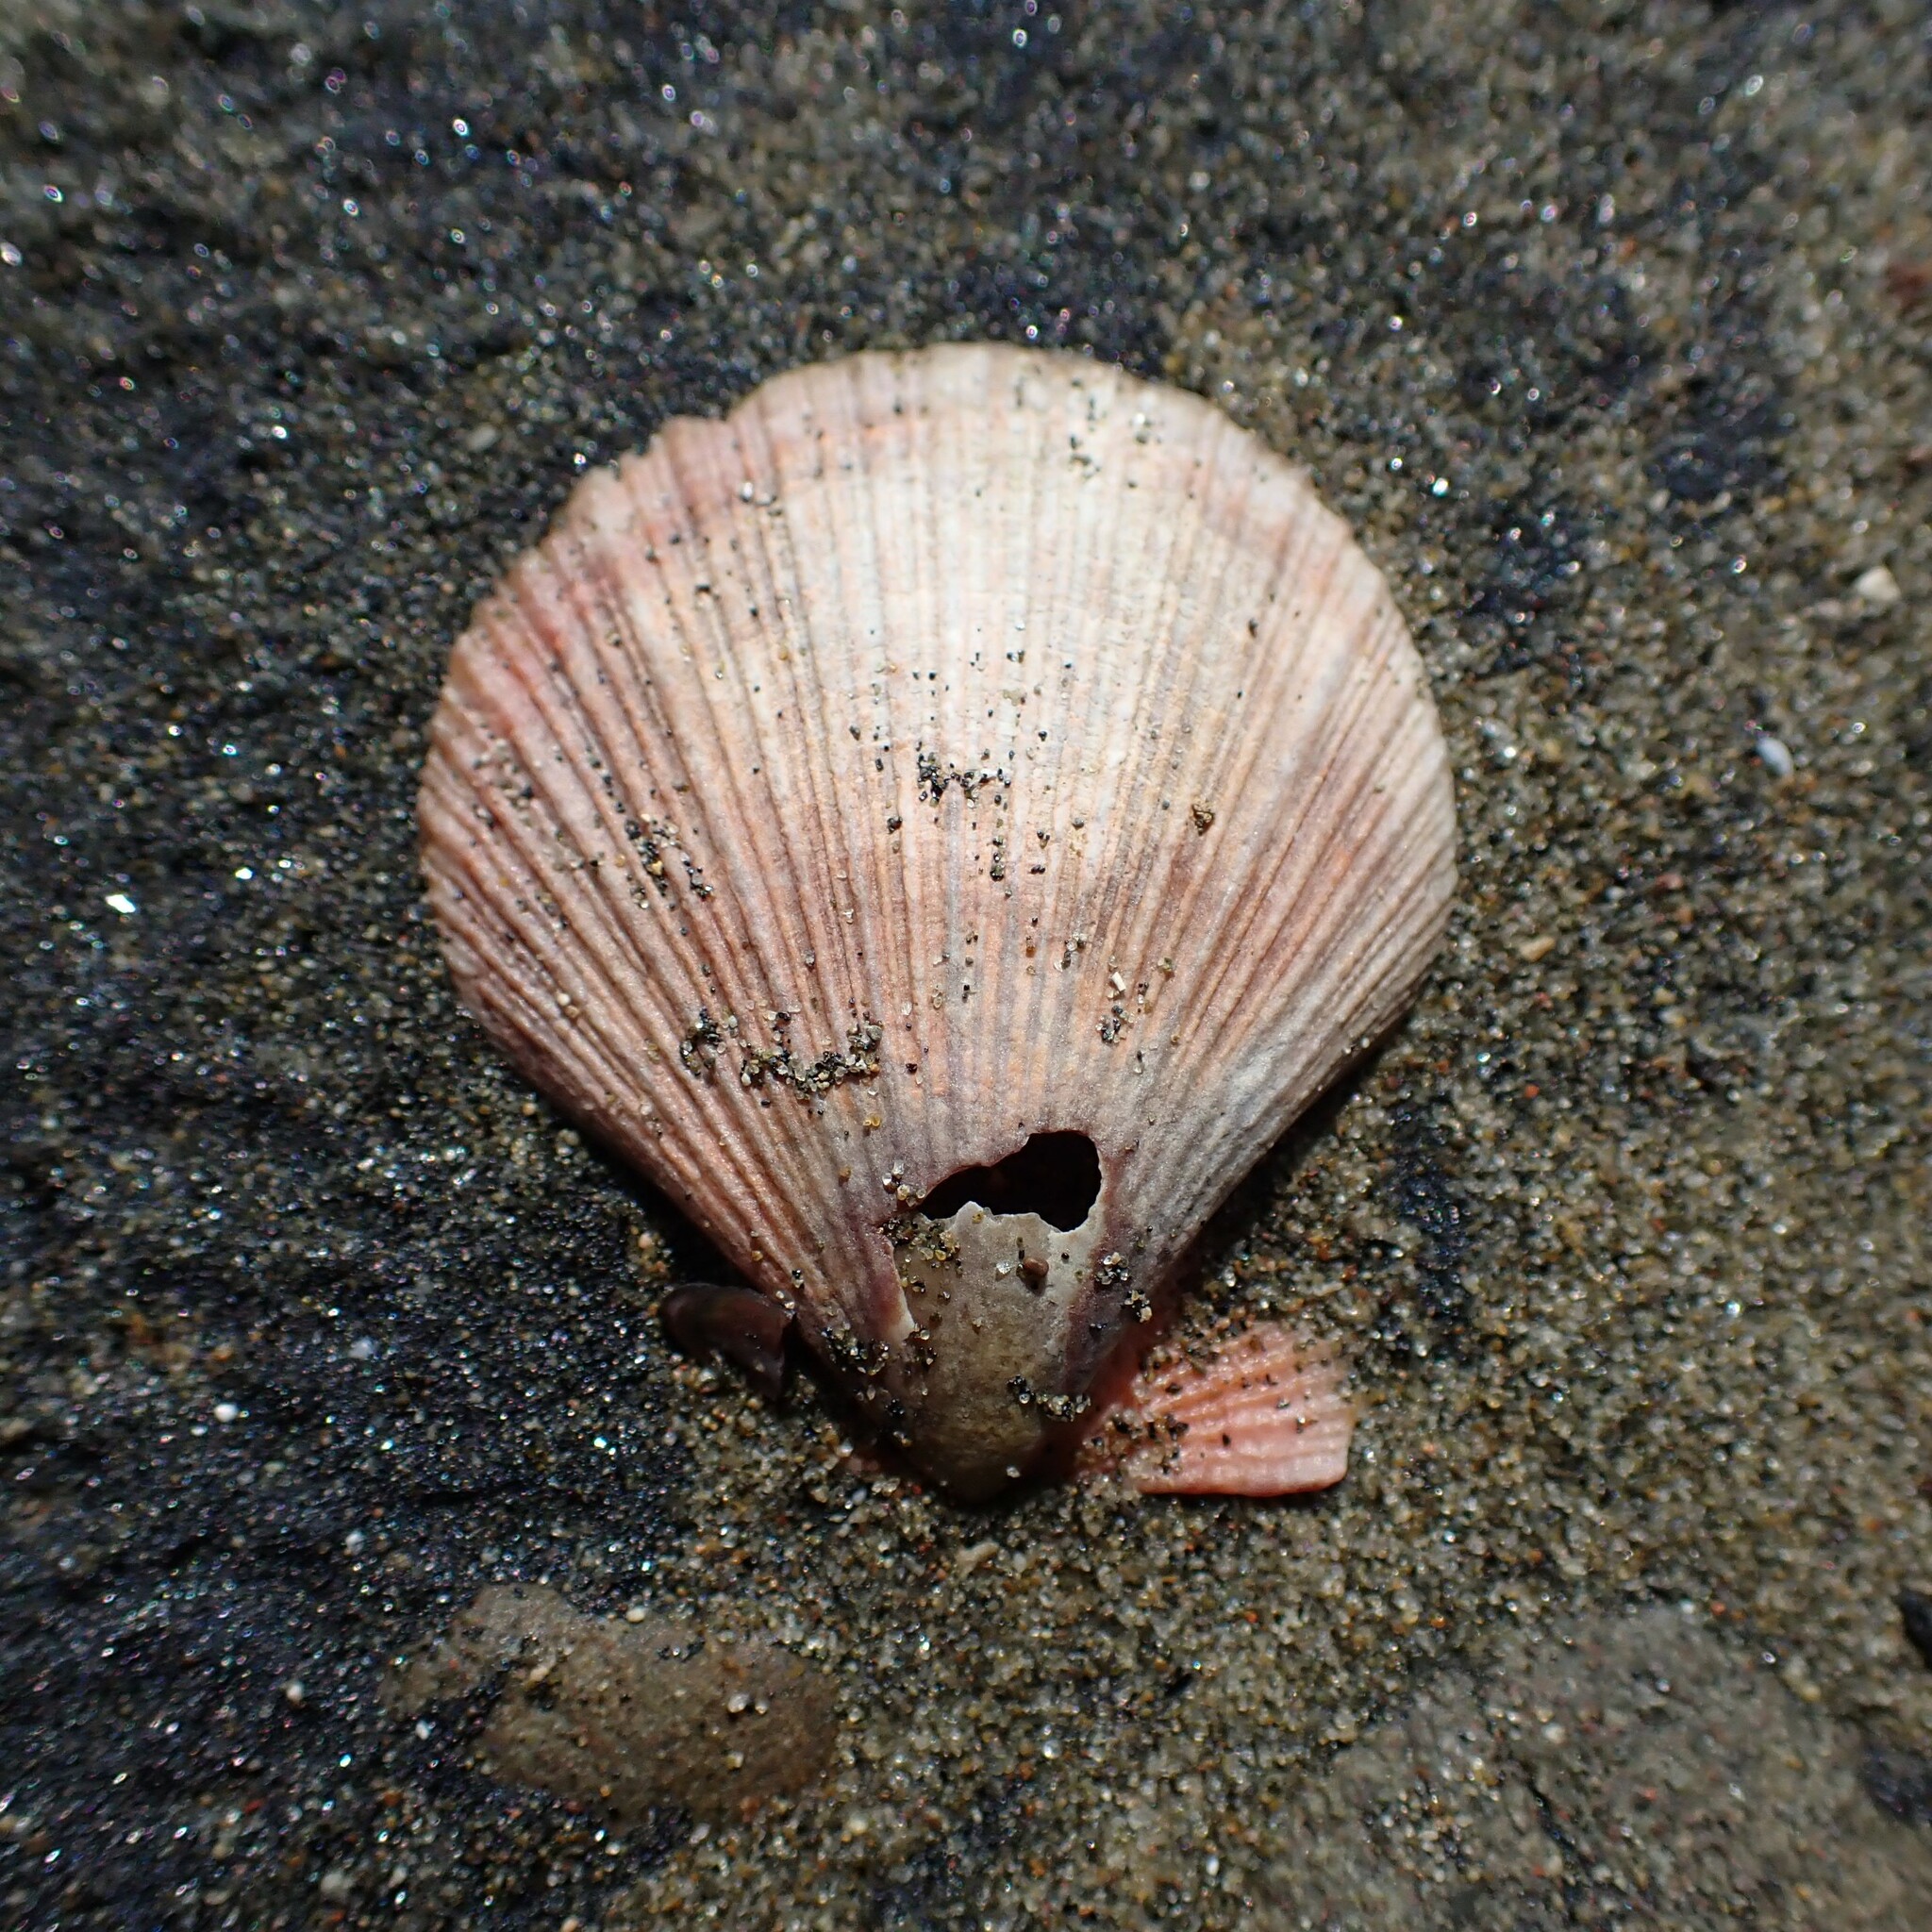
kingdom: Animalia
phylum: Mollusca
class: Bivalvia
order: Pectinida
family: Pectinidae
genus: Talochlamys
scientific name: Talochlamys zelandiae
